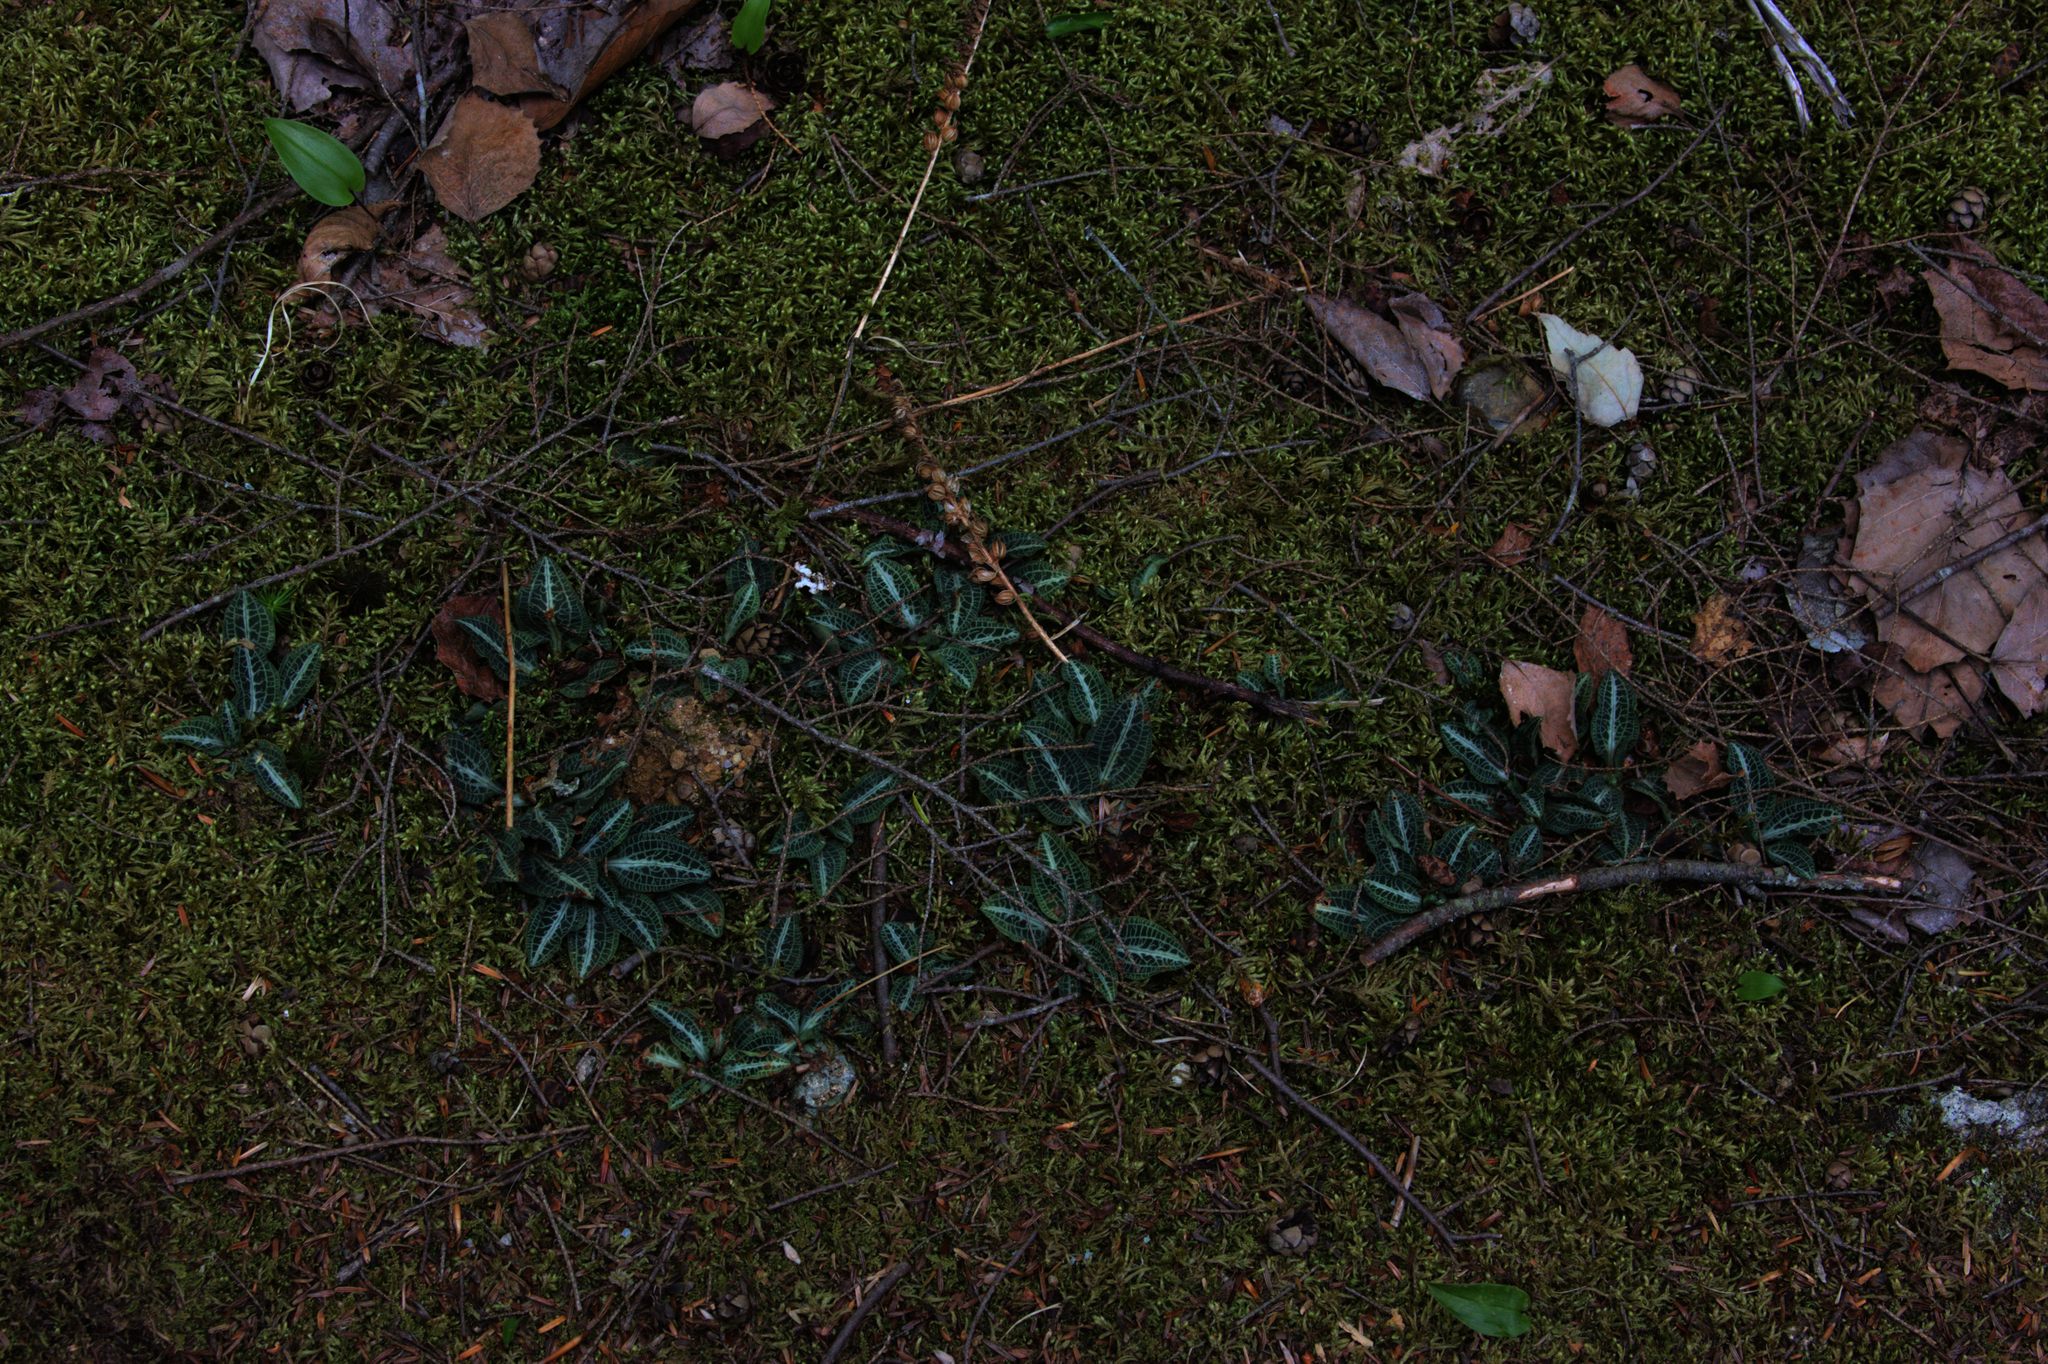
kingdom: Plantae
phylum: Tracheophyta
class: Liliopsida
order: Asparagales
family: Orchidaceae
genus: Goodyera
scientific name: Goodyera pubescens
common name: Downy rattlesnake-plantain
